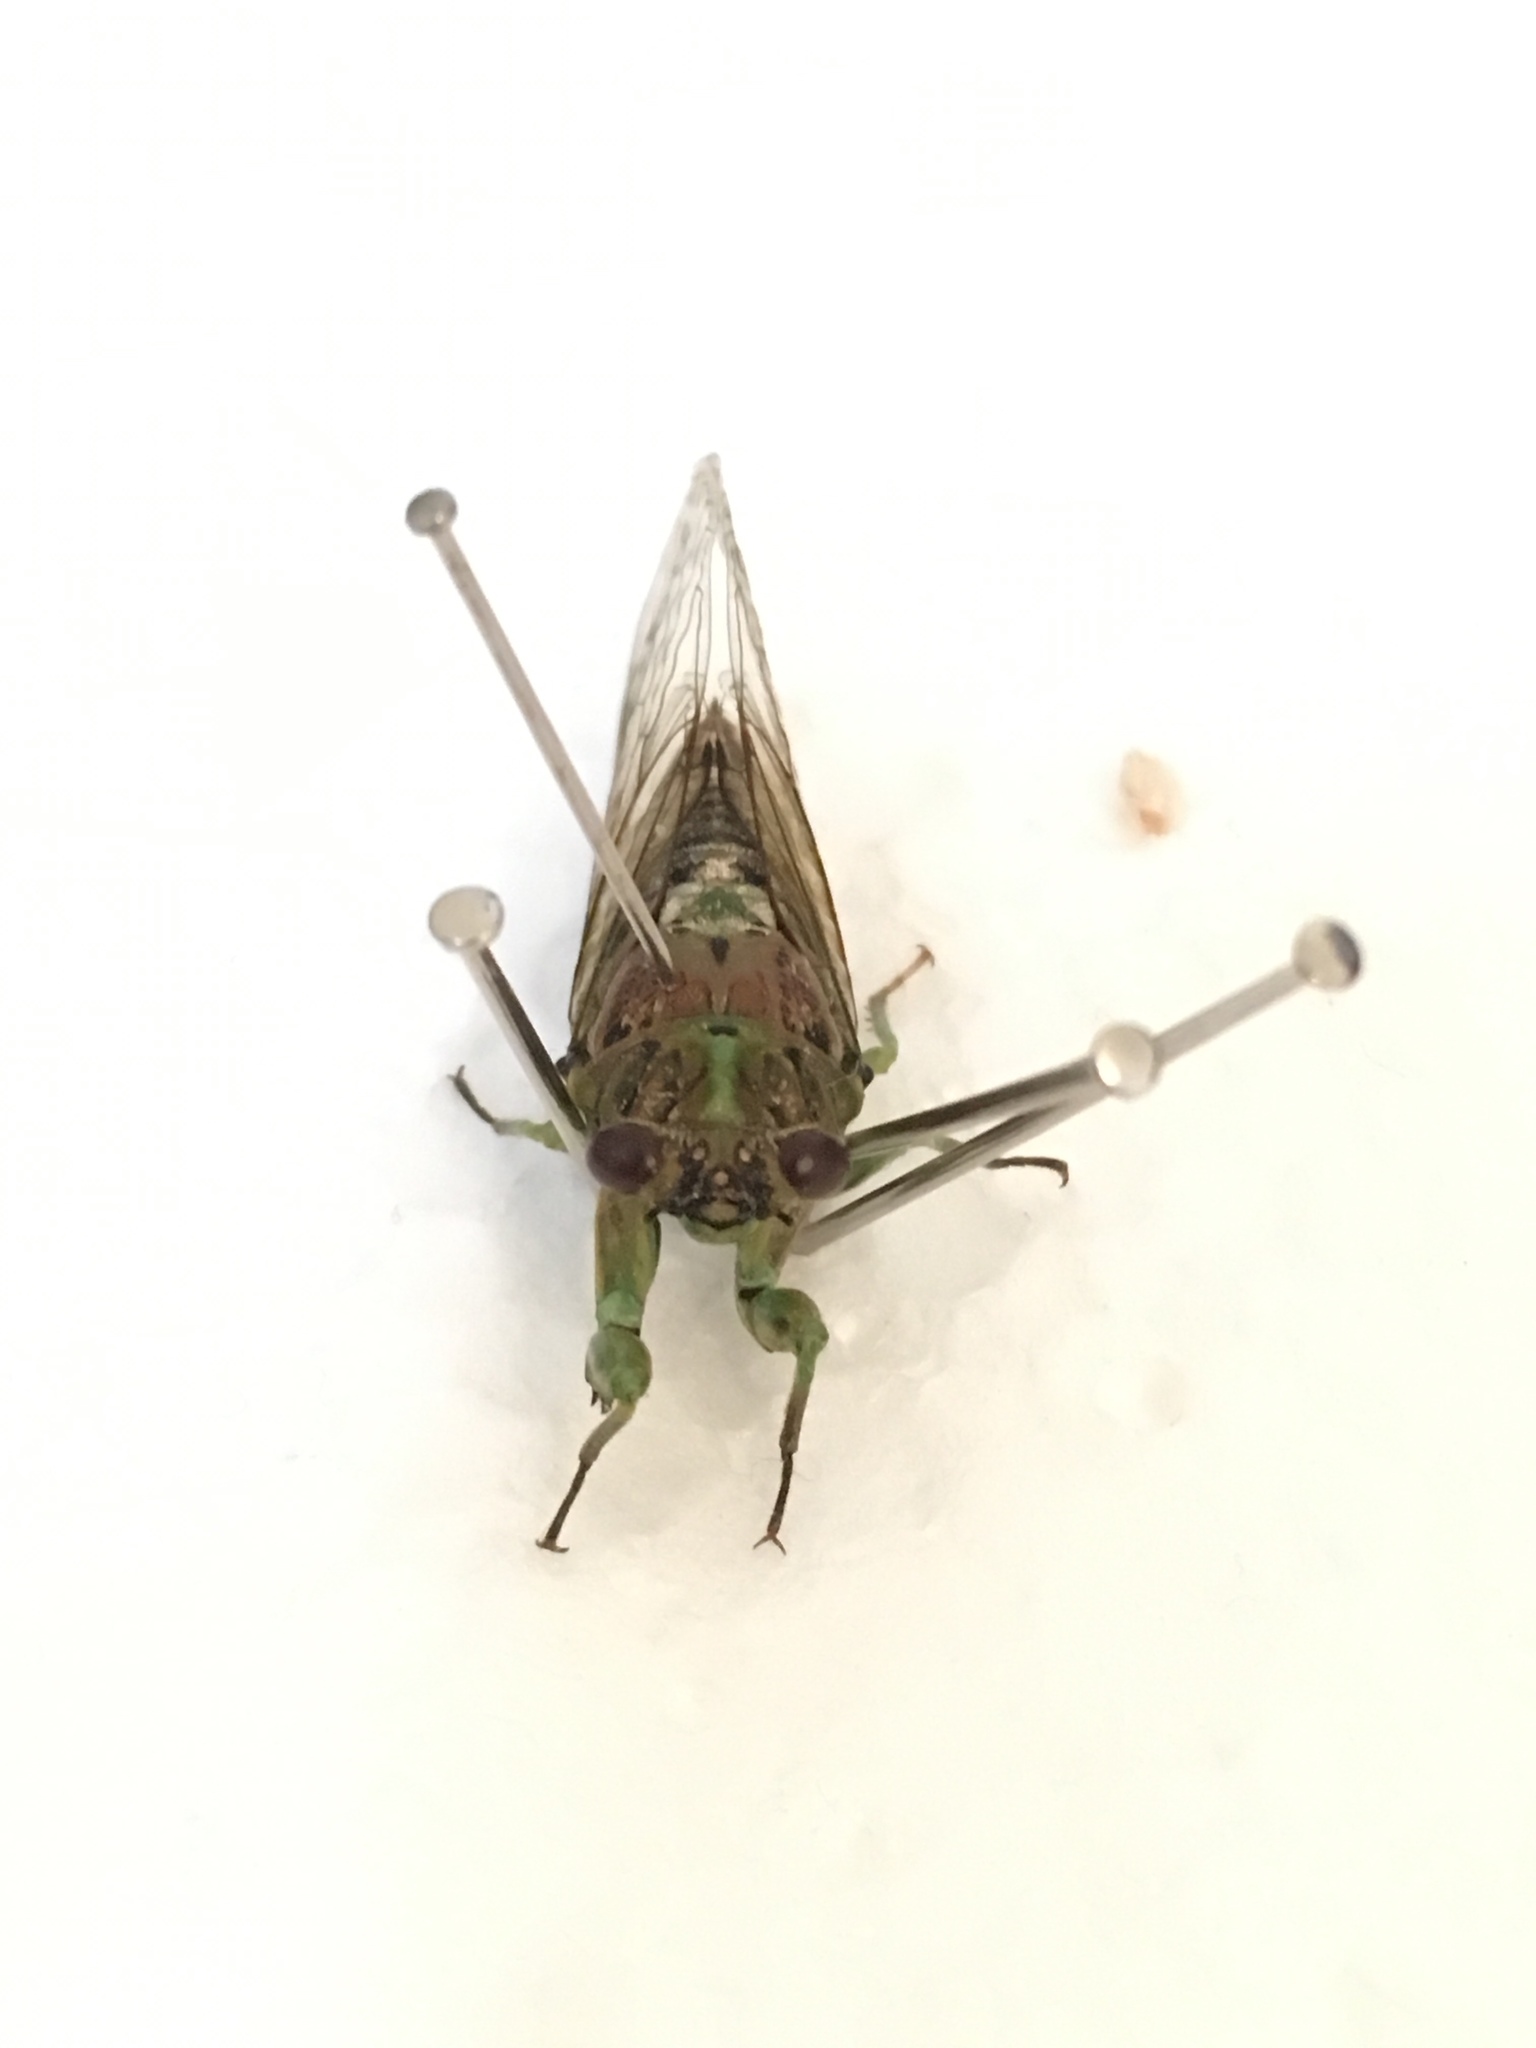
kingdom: Animalia
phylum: Arthropoda
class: Insecta
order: Hemiptera
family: Cicadidae
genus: Kikihia
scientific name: Kikihia scutellaris
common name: Lesser bronze cicada
